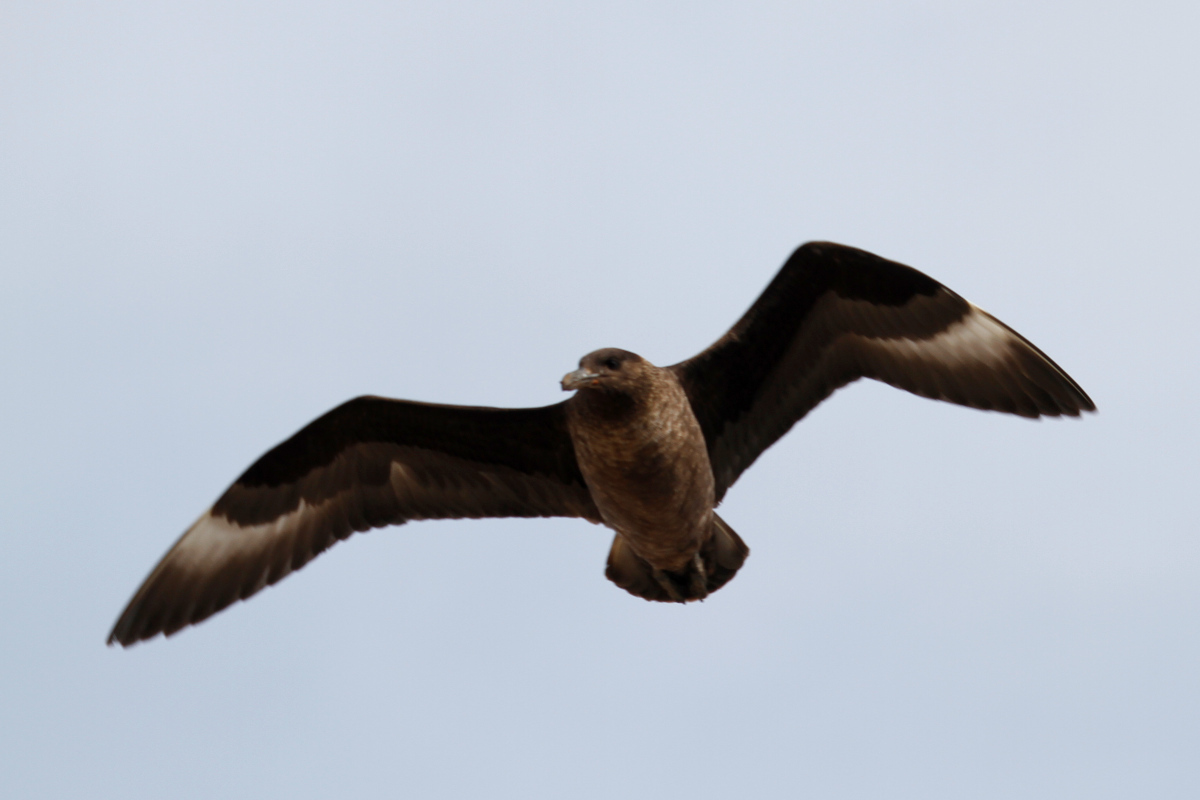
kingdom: Animalia
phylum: Chordata
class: Aves
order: Charadriiformes
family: Stercorariidae
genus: Stercorarius
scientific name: Stercorarius antarcticus
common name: Brown skua
